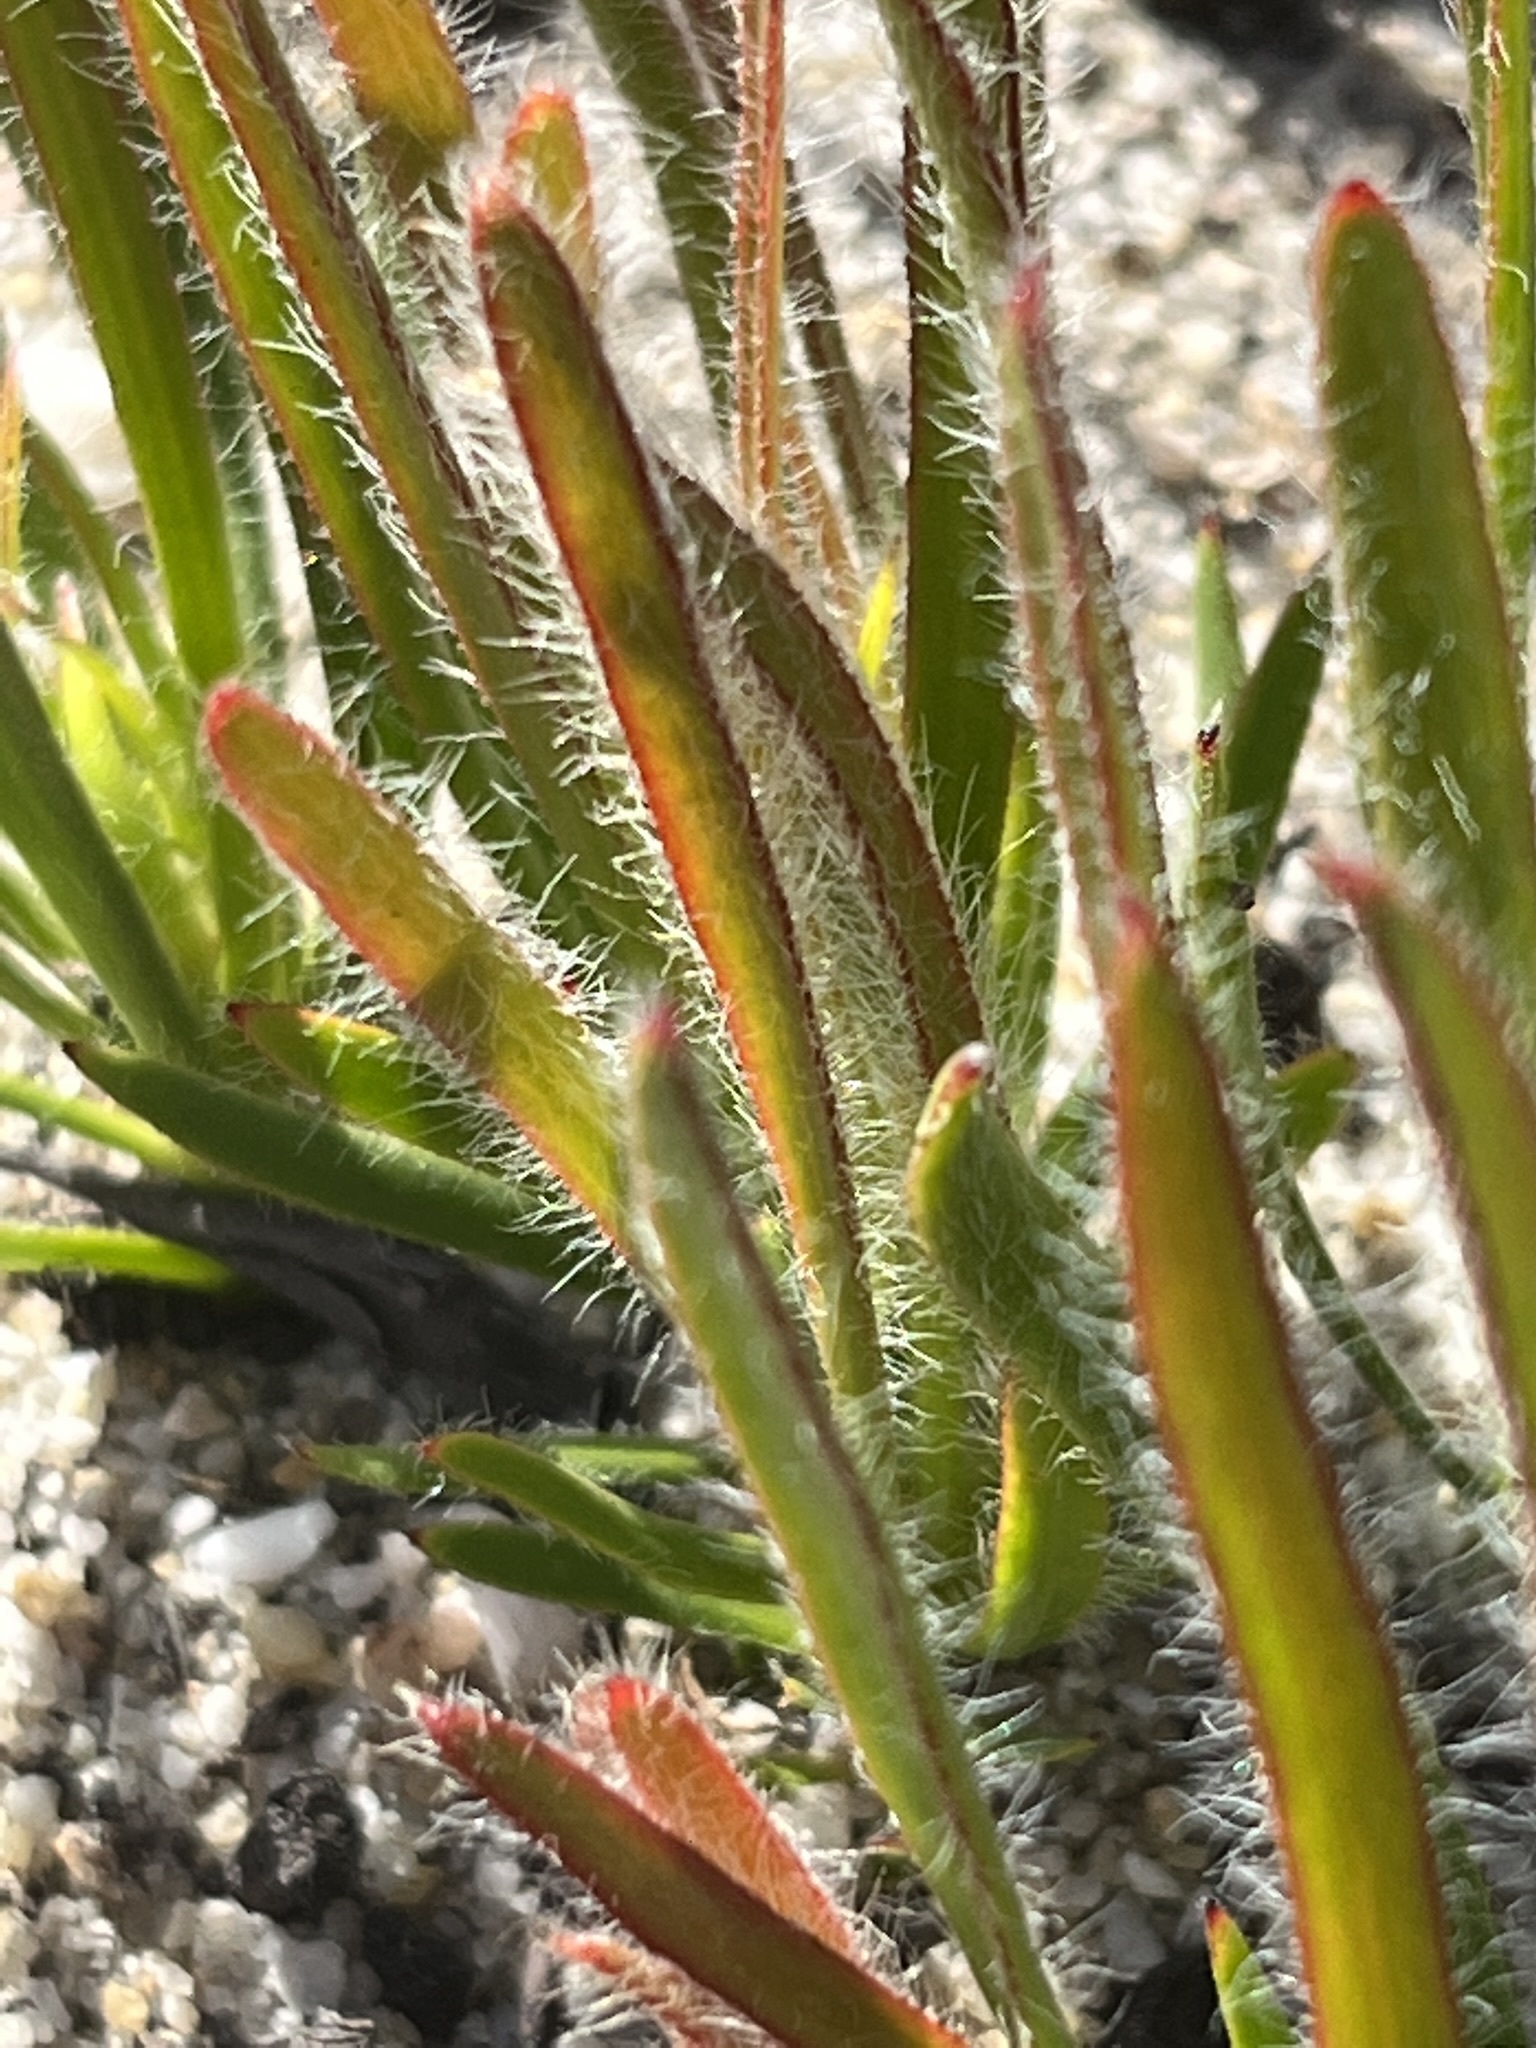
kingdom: Plantae
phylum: Tracheophyta
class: Magnoliopsida
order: Proteales
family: Proteaceae
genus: Protea
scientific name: Protea aspera
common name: Rough-leaf sugarbush
